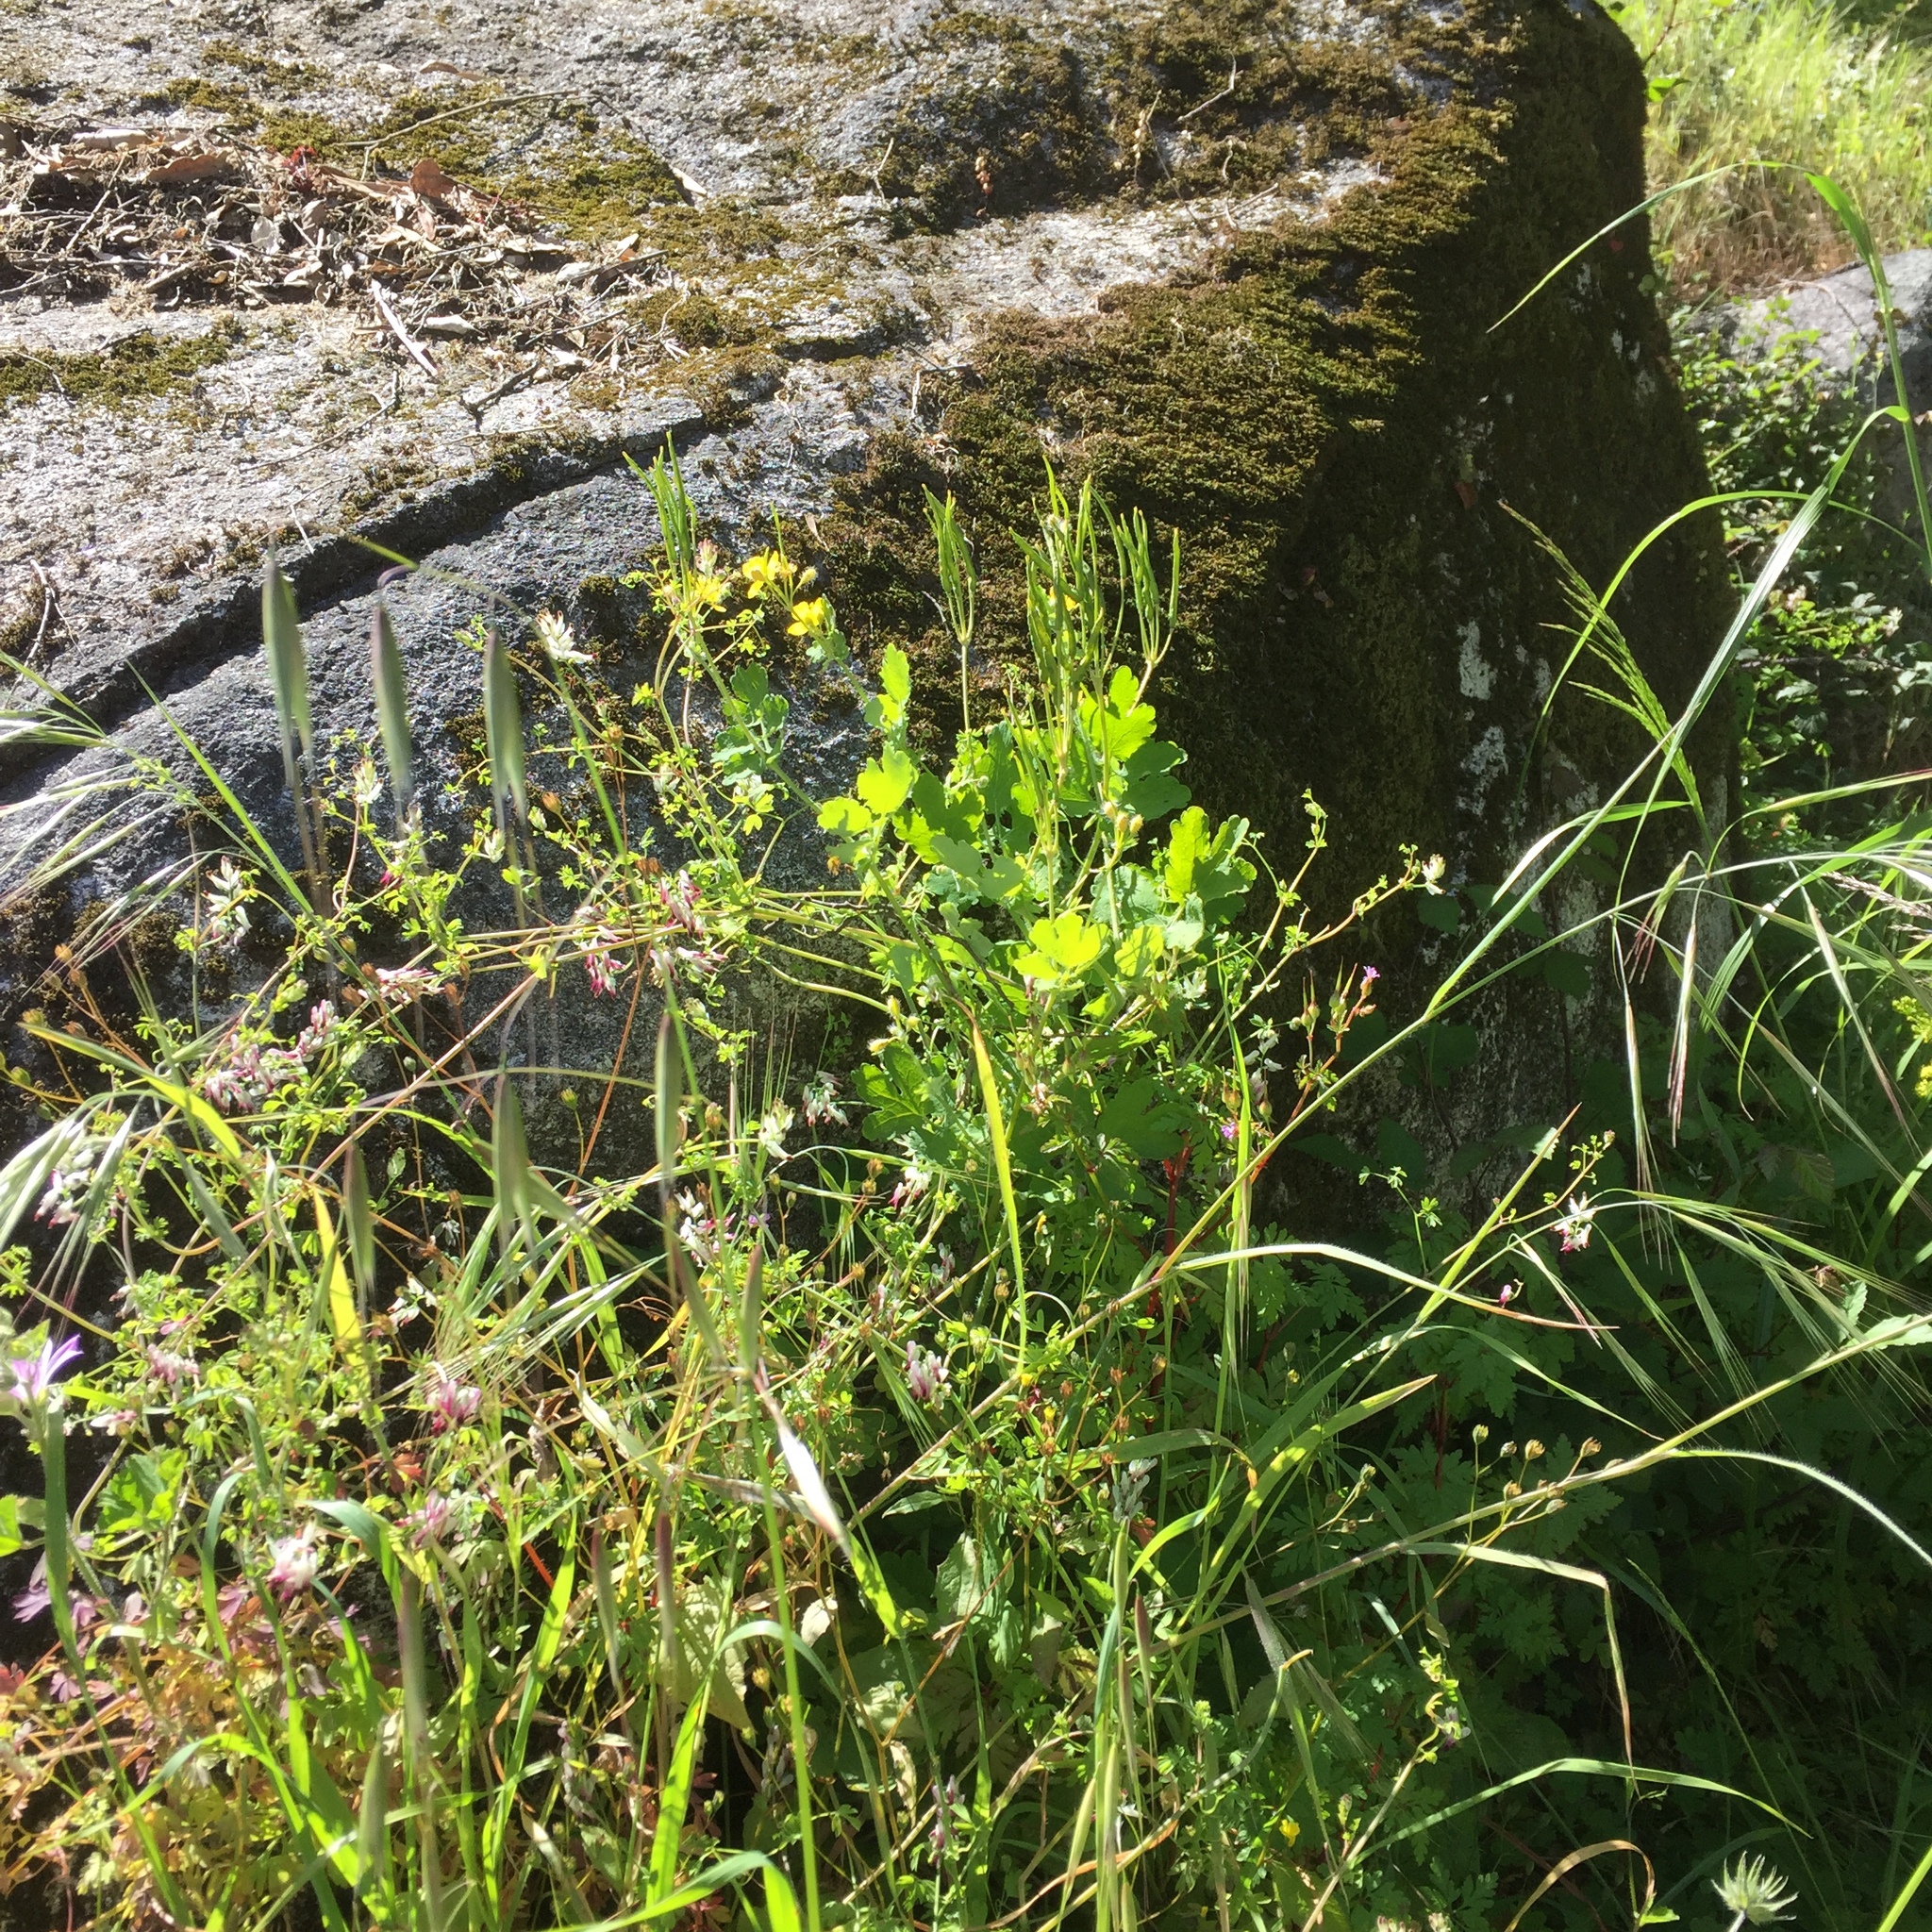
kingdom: Plantae
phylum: Tracheophyta
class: Magnoliopsida
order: Ranunculales
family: Papaveraceae
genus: Chelidonium
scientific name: Chelidonium majus
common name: Greater celandine
